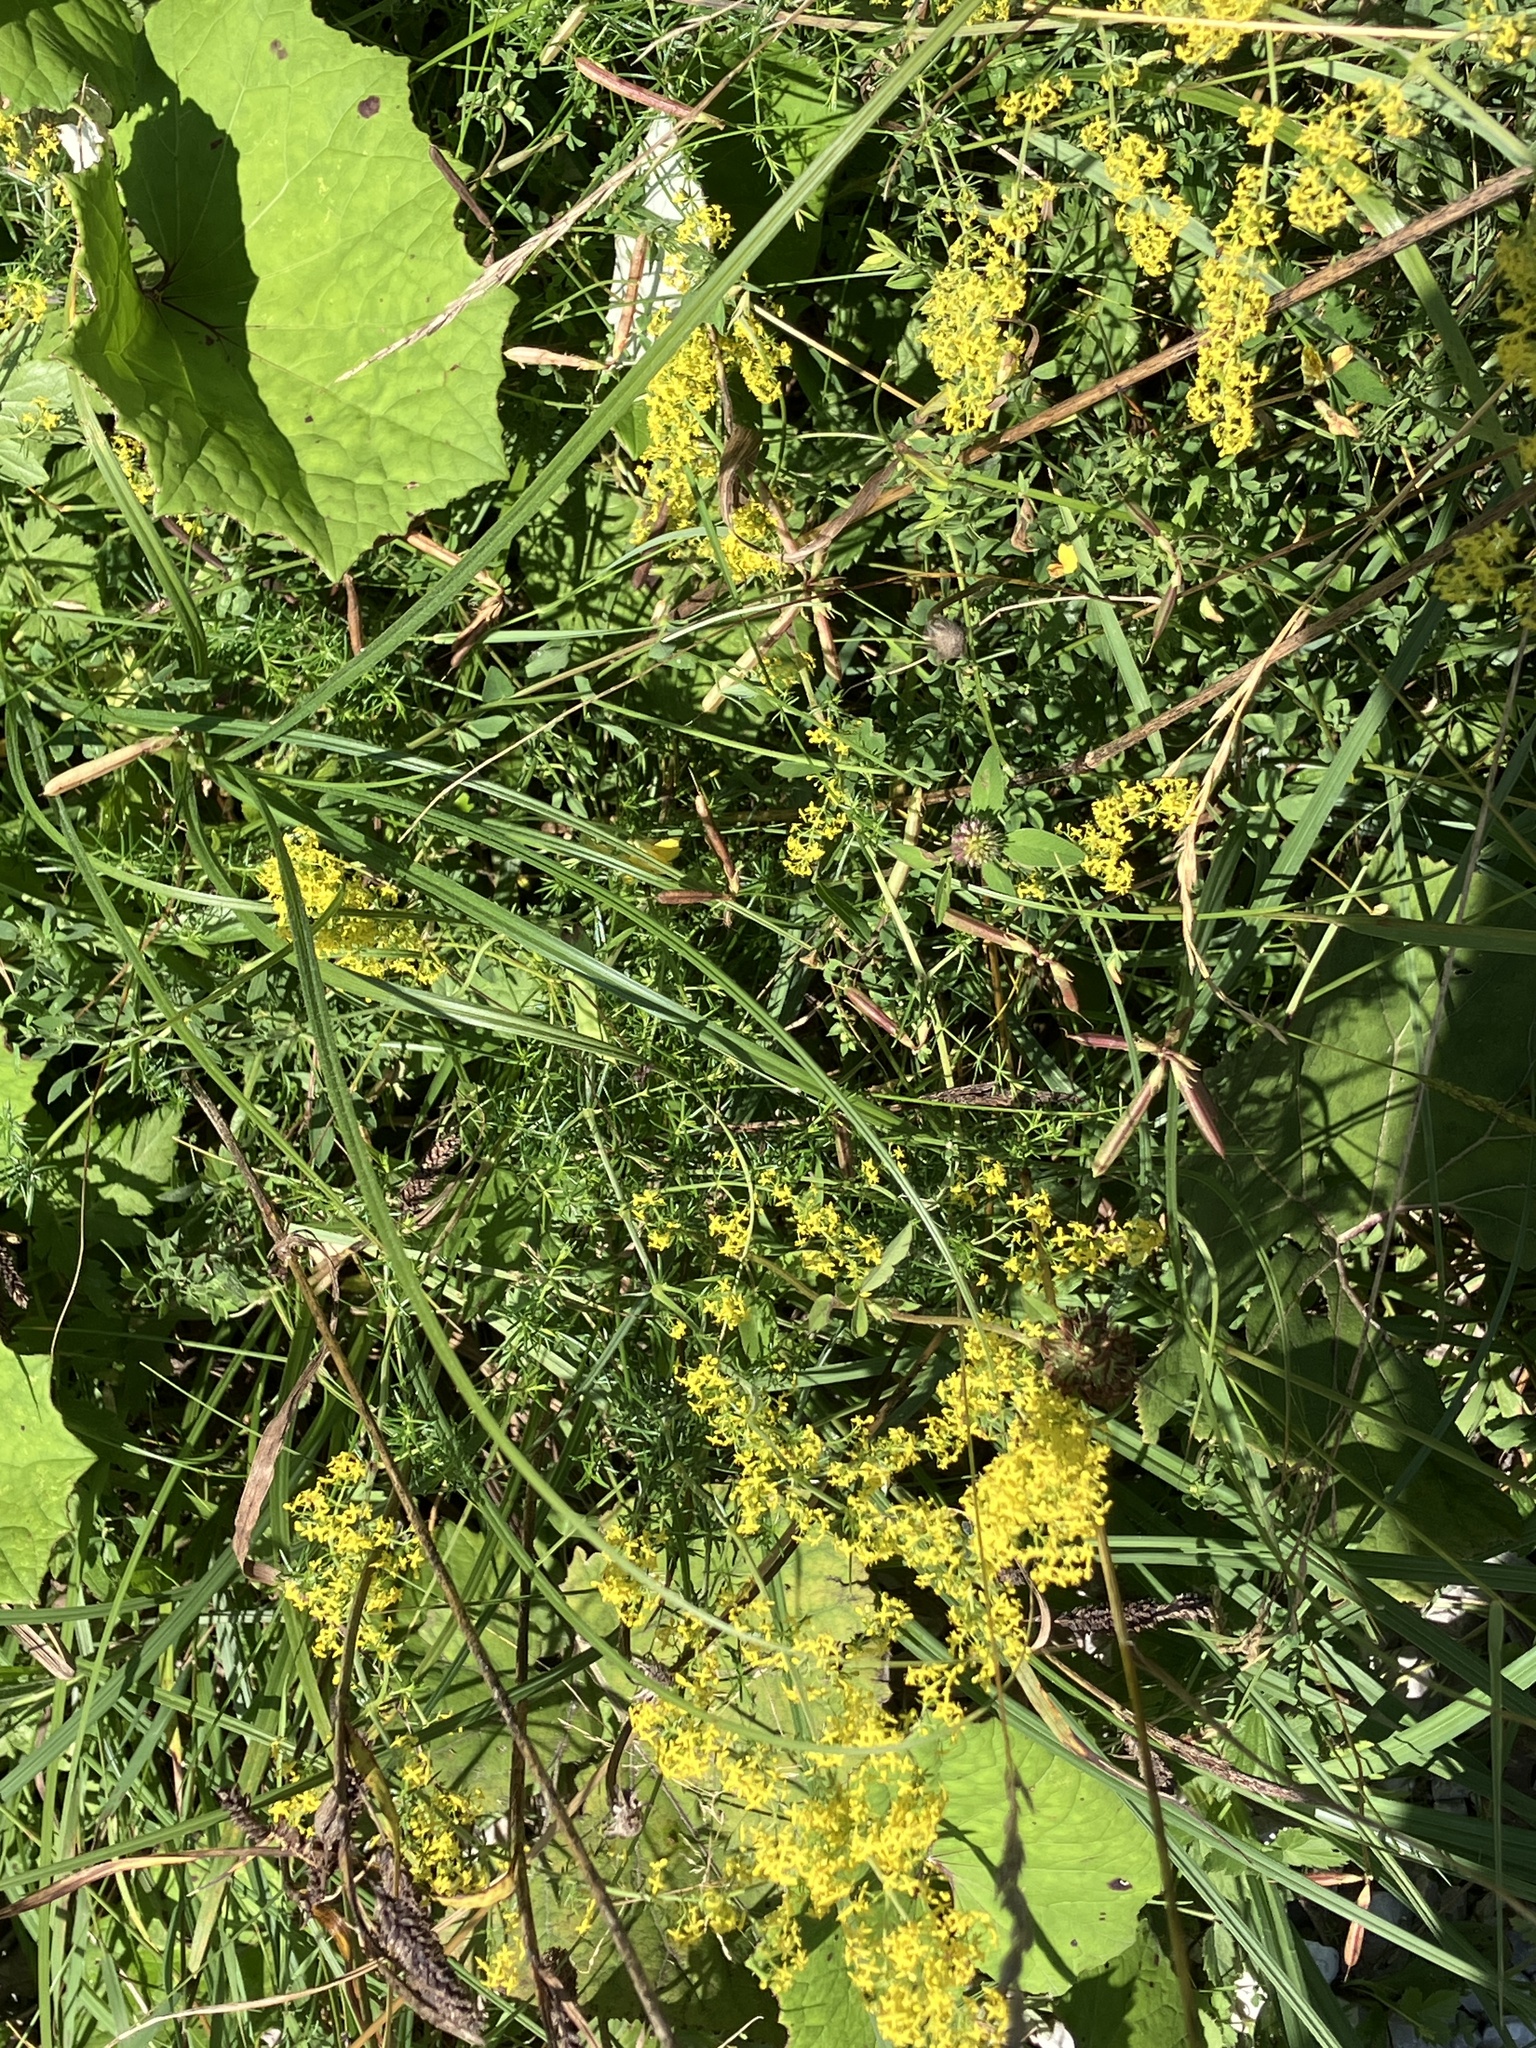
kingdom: Plantae
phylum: Tracheophyta
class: Magnoliopsida
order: Gentianales
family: Rubiaceae
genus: Galium
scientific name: Galium verum
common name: Lady's bedstraw
